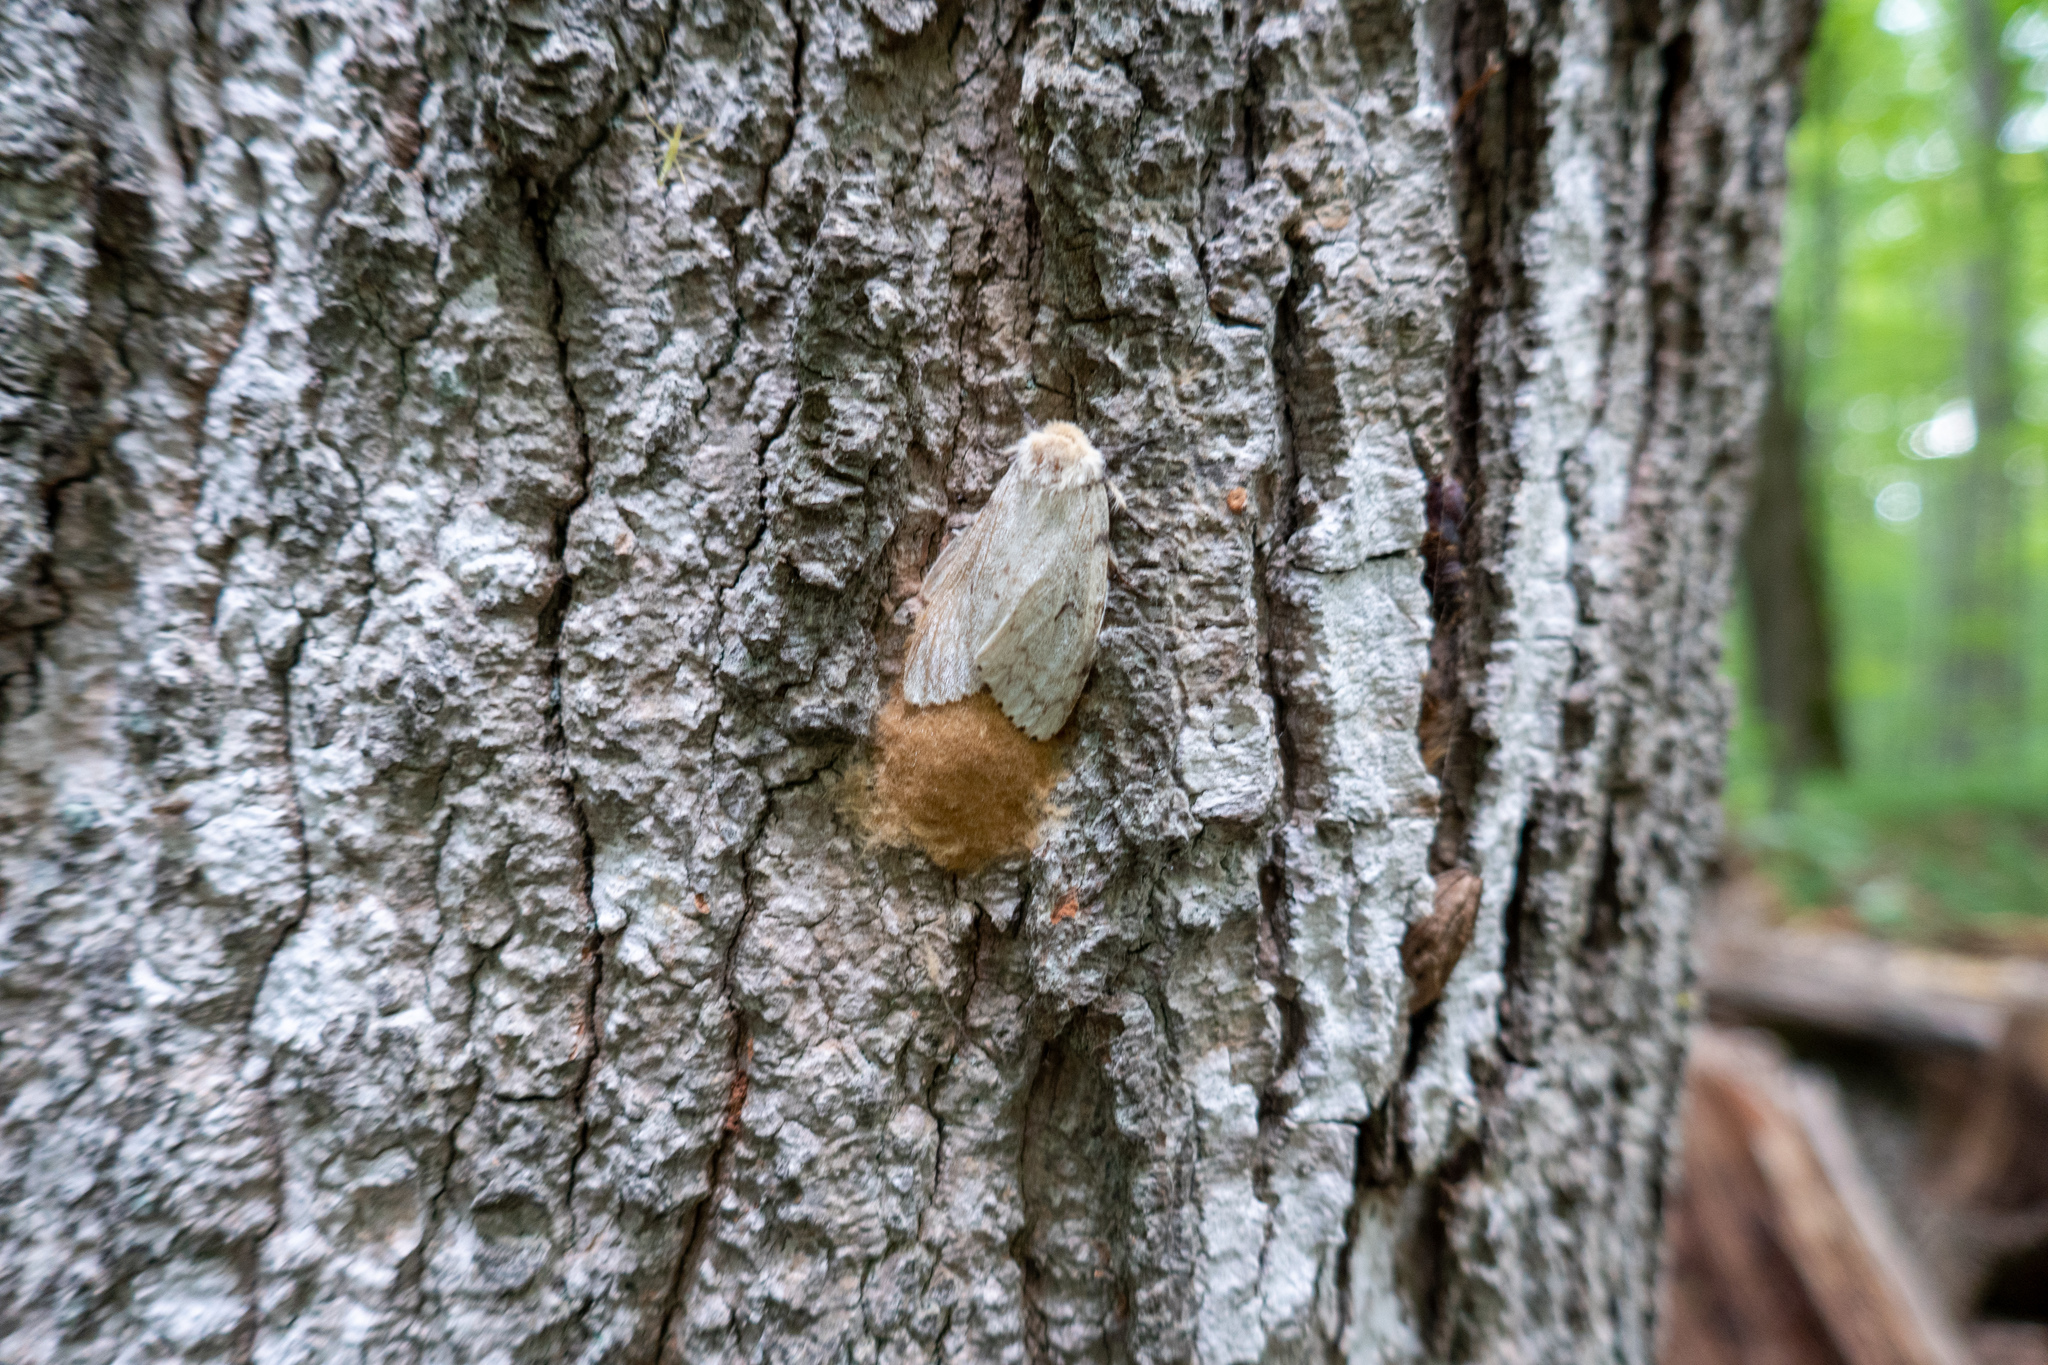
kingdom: Animalia
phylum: Arthropoda
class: Insecta
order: Lepidoptera
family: Erebidae
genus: Lymantria
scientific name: Lymantria dispar
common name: Gypsy moth
